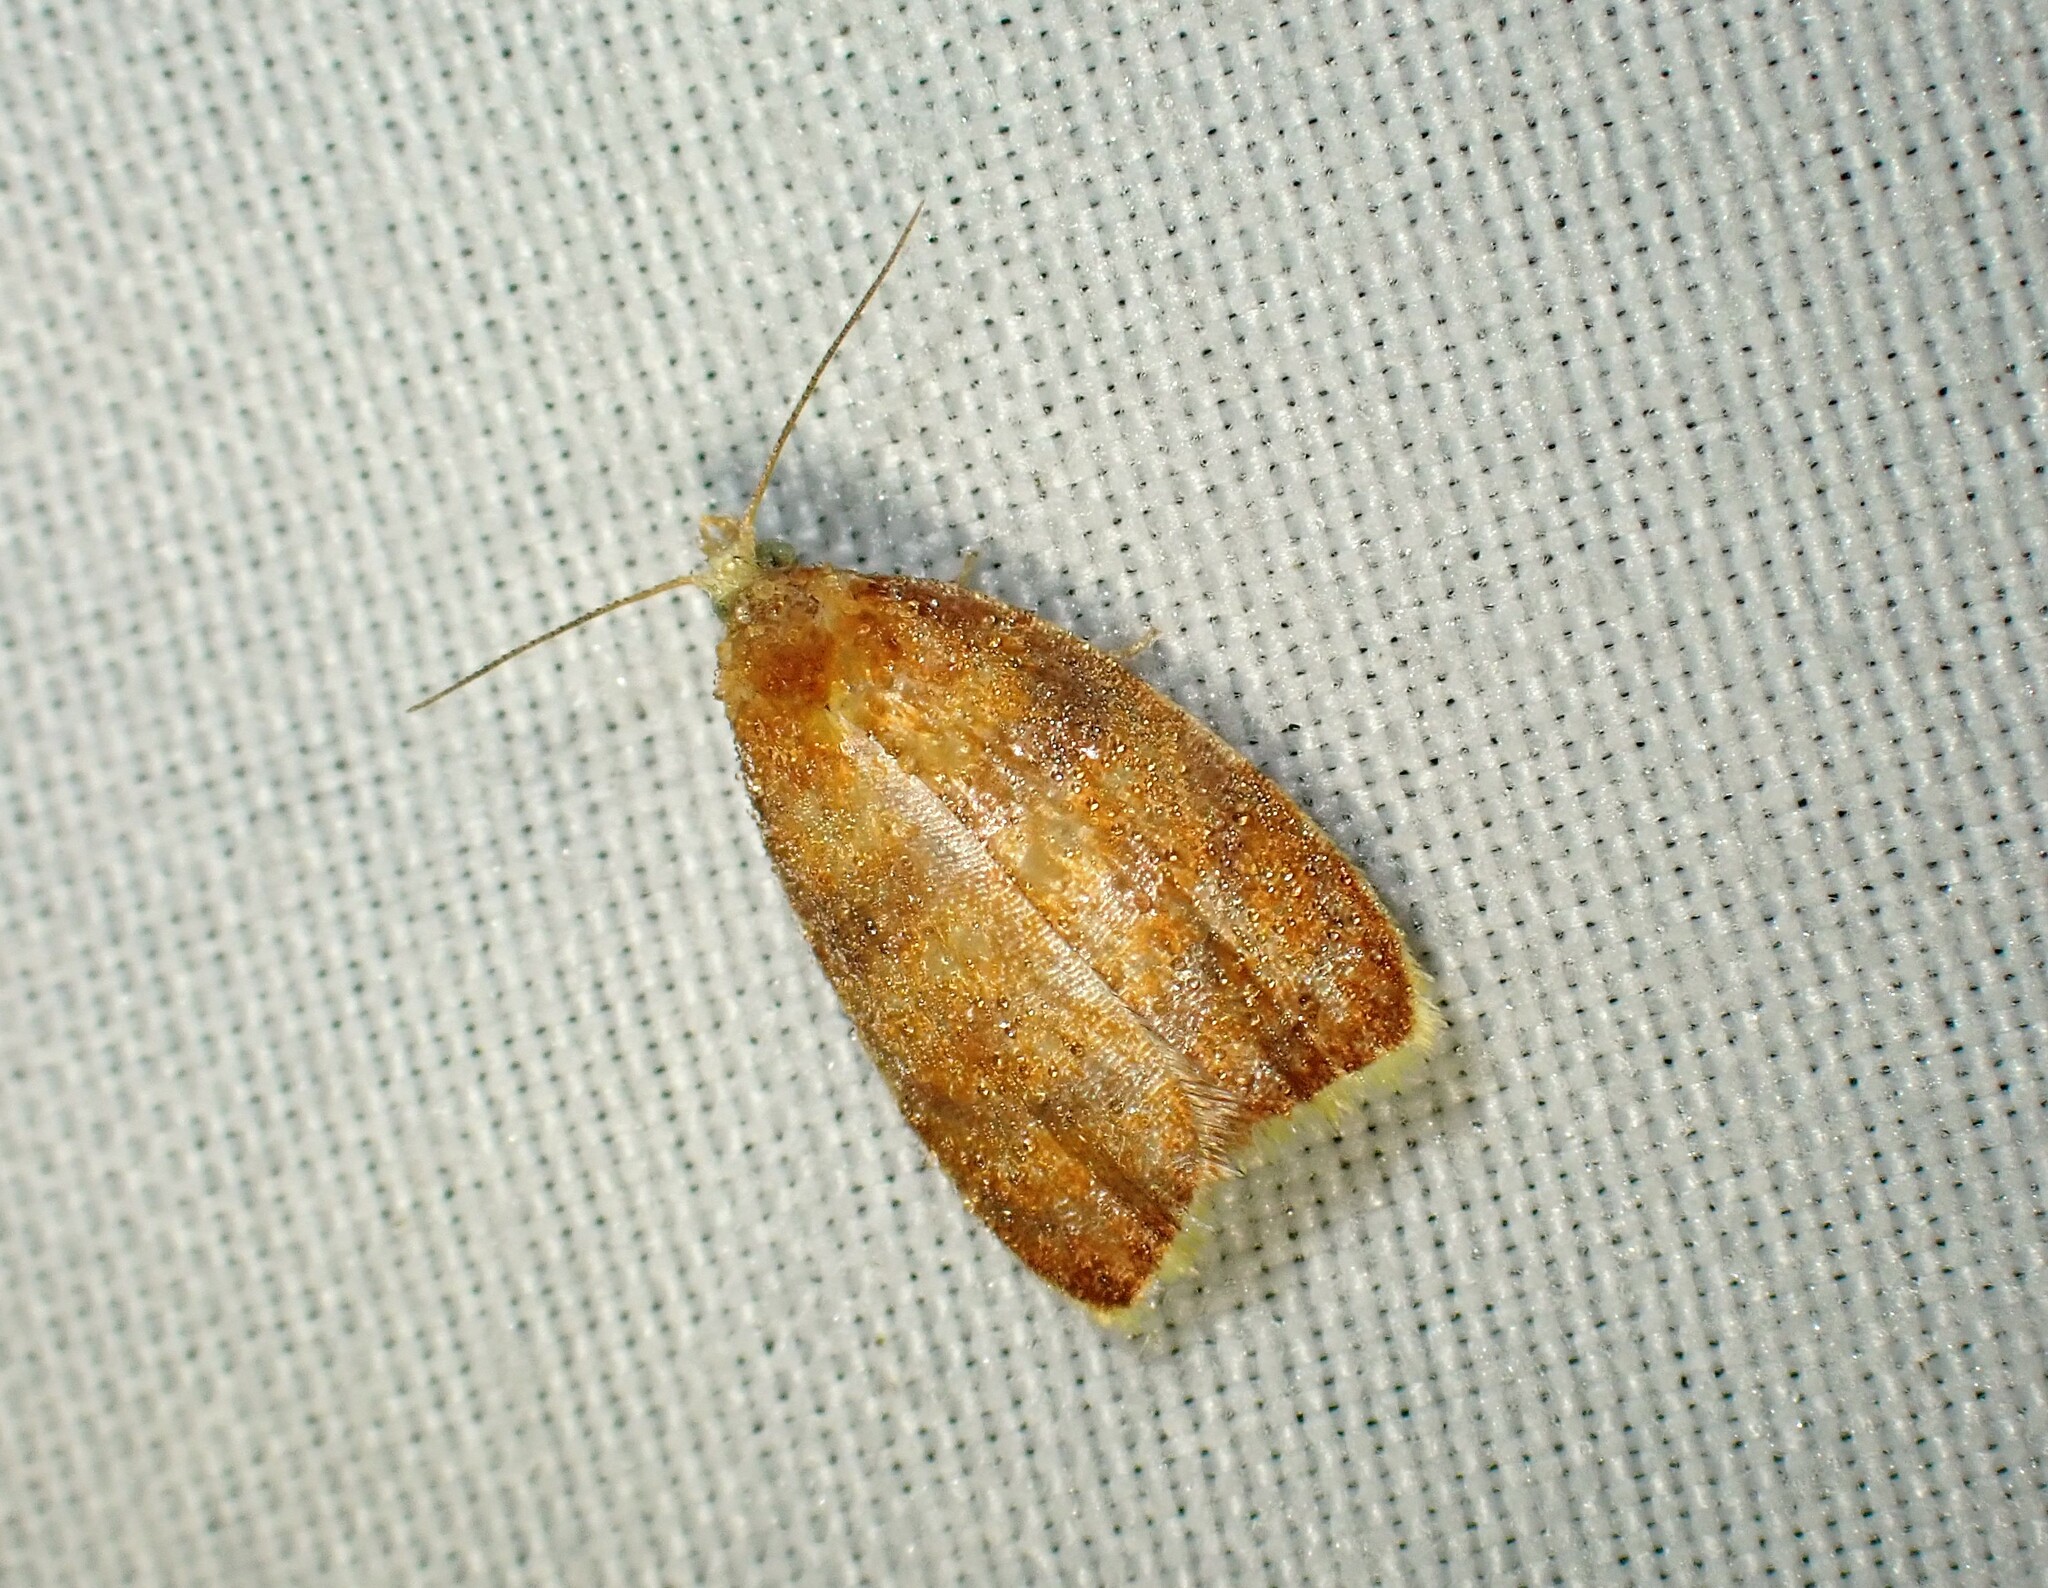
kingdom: Animalia
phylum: Arthropoda
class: Insecta
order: Lepidoptera
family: Tortricidae
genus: Acleris
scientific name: Acleris curvalana
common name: Blueberry leaftier moth
